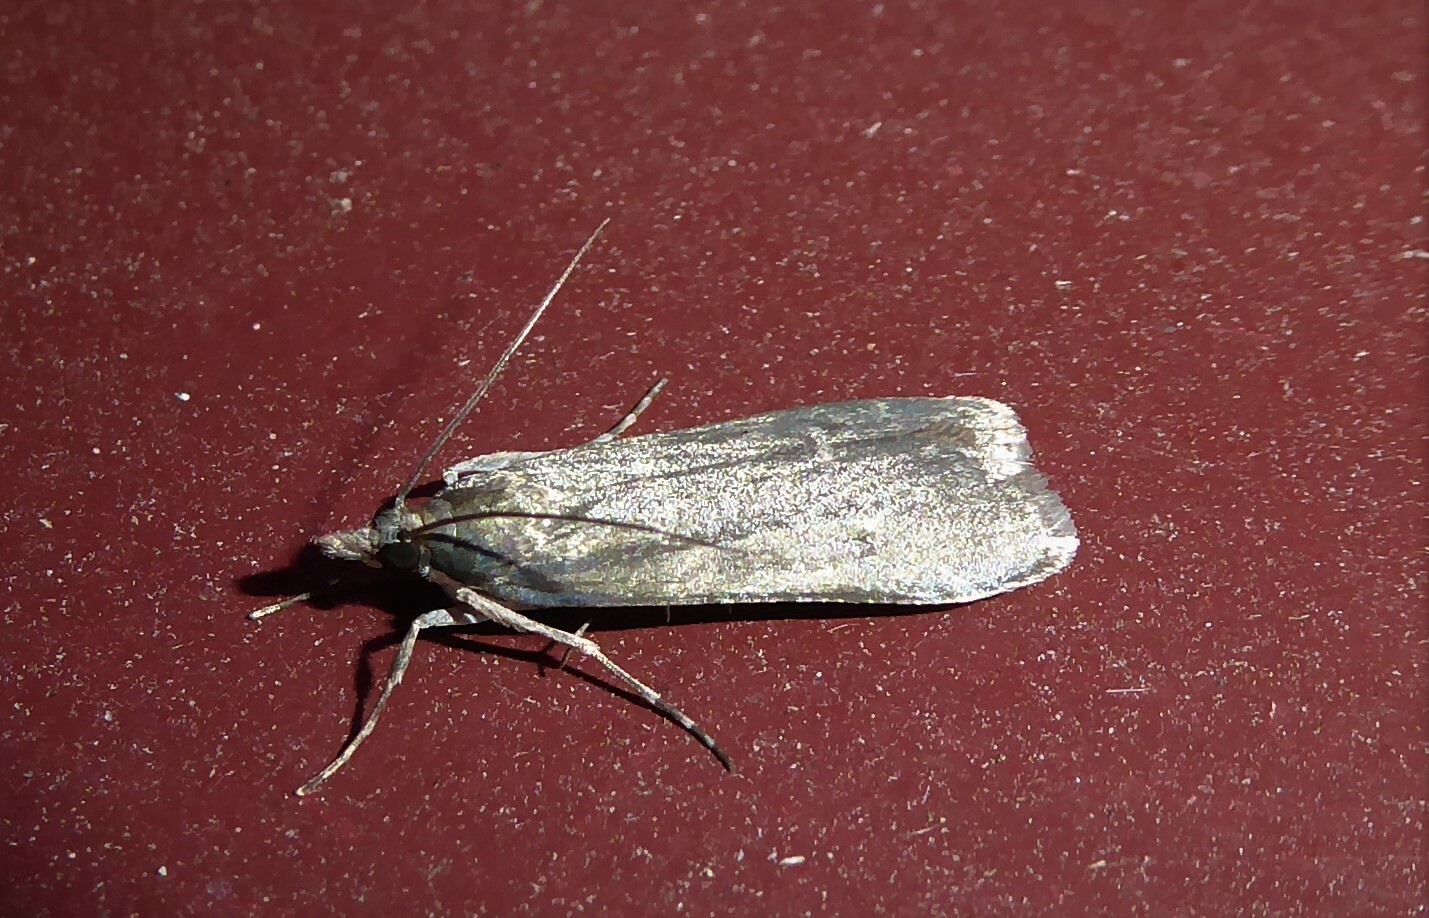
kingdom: Animalia
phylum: Arthropoda
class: Insecta
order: Lepidoptera
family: Crambidae
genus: Eudonia
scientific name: Eudonia cataxesta
